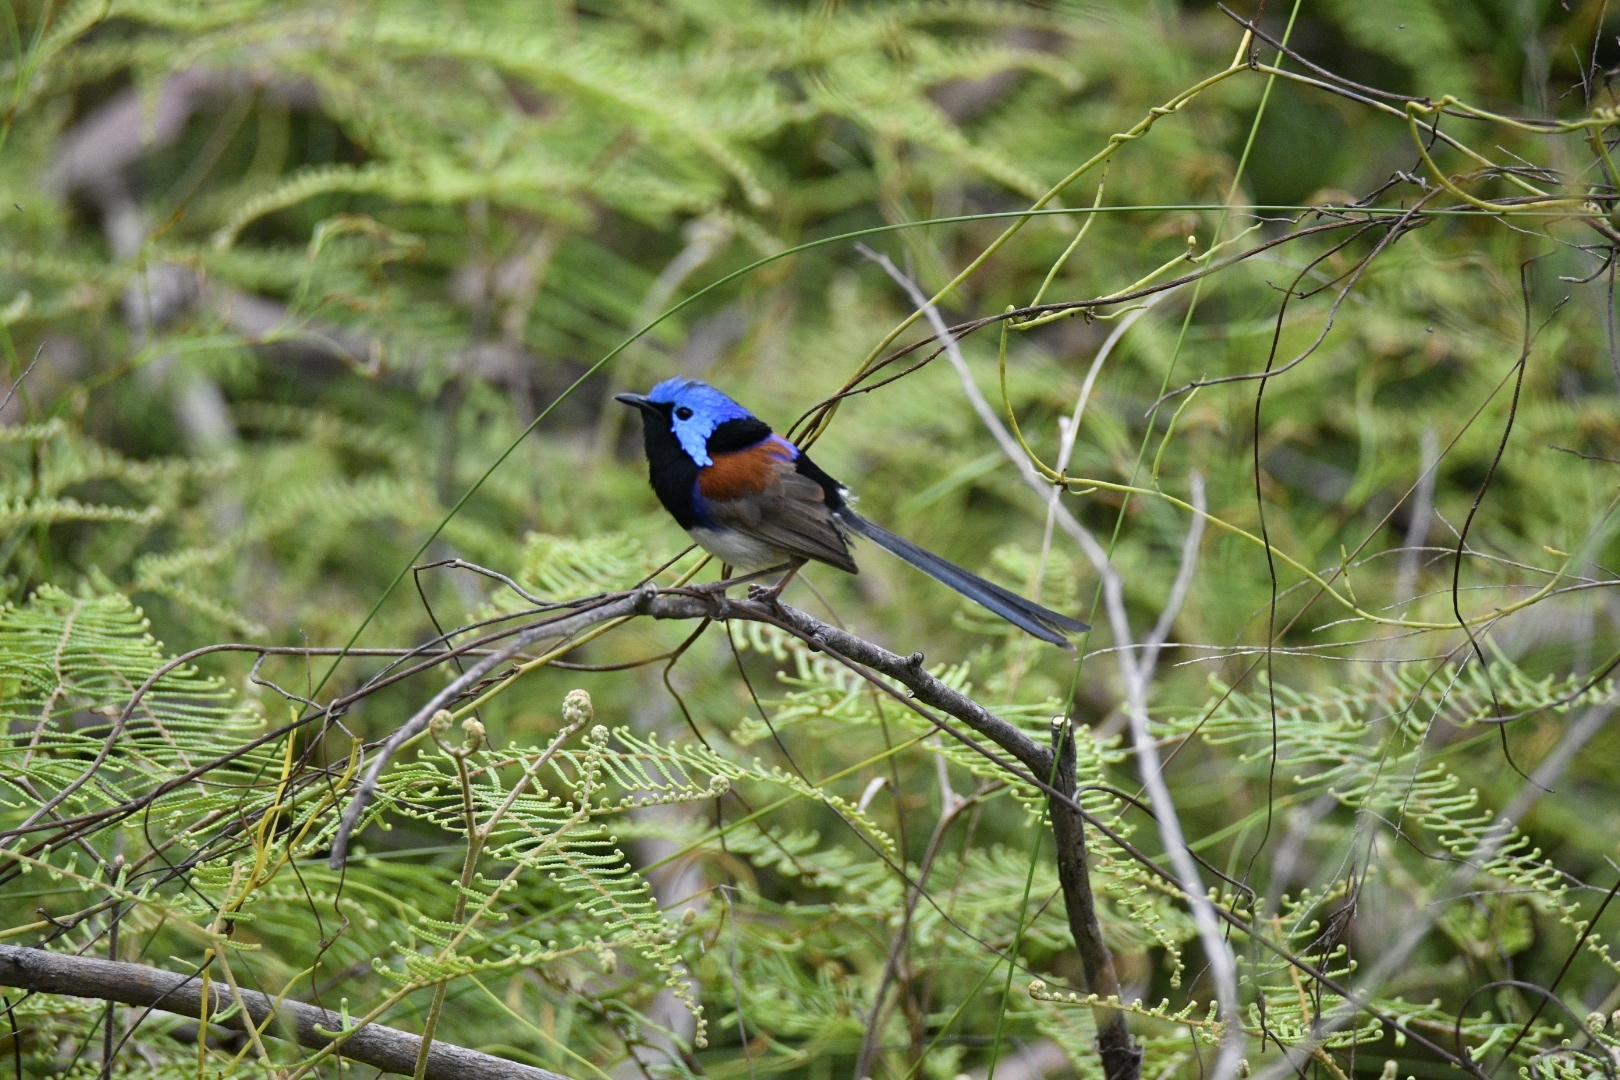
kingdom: Animalia
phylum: Chordata
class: Aves
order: Passeriformes
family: Maluridae
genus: Malurus
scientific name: Malurus lamberti
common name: Variegated fairywren
